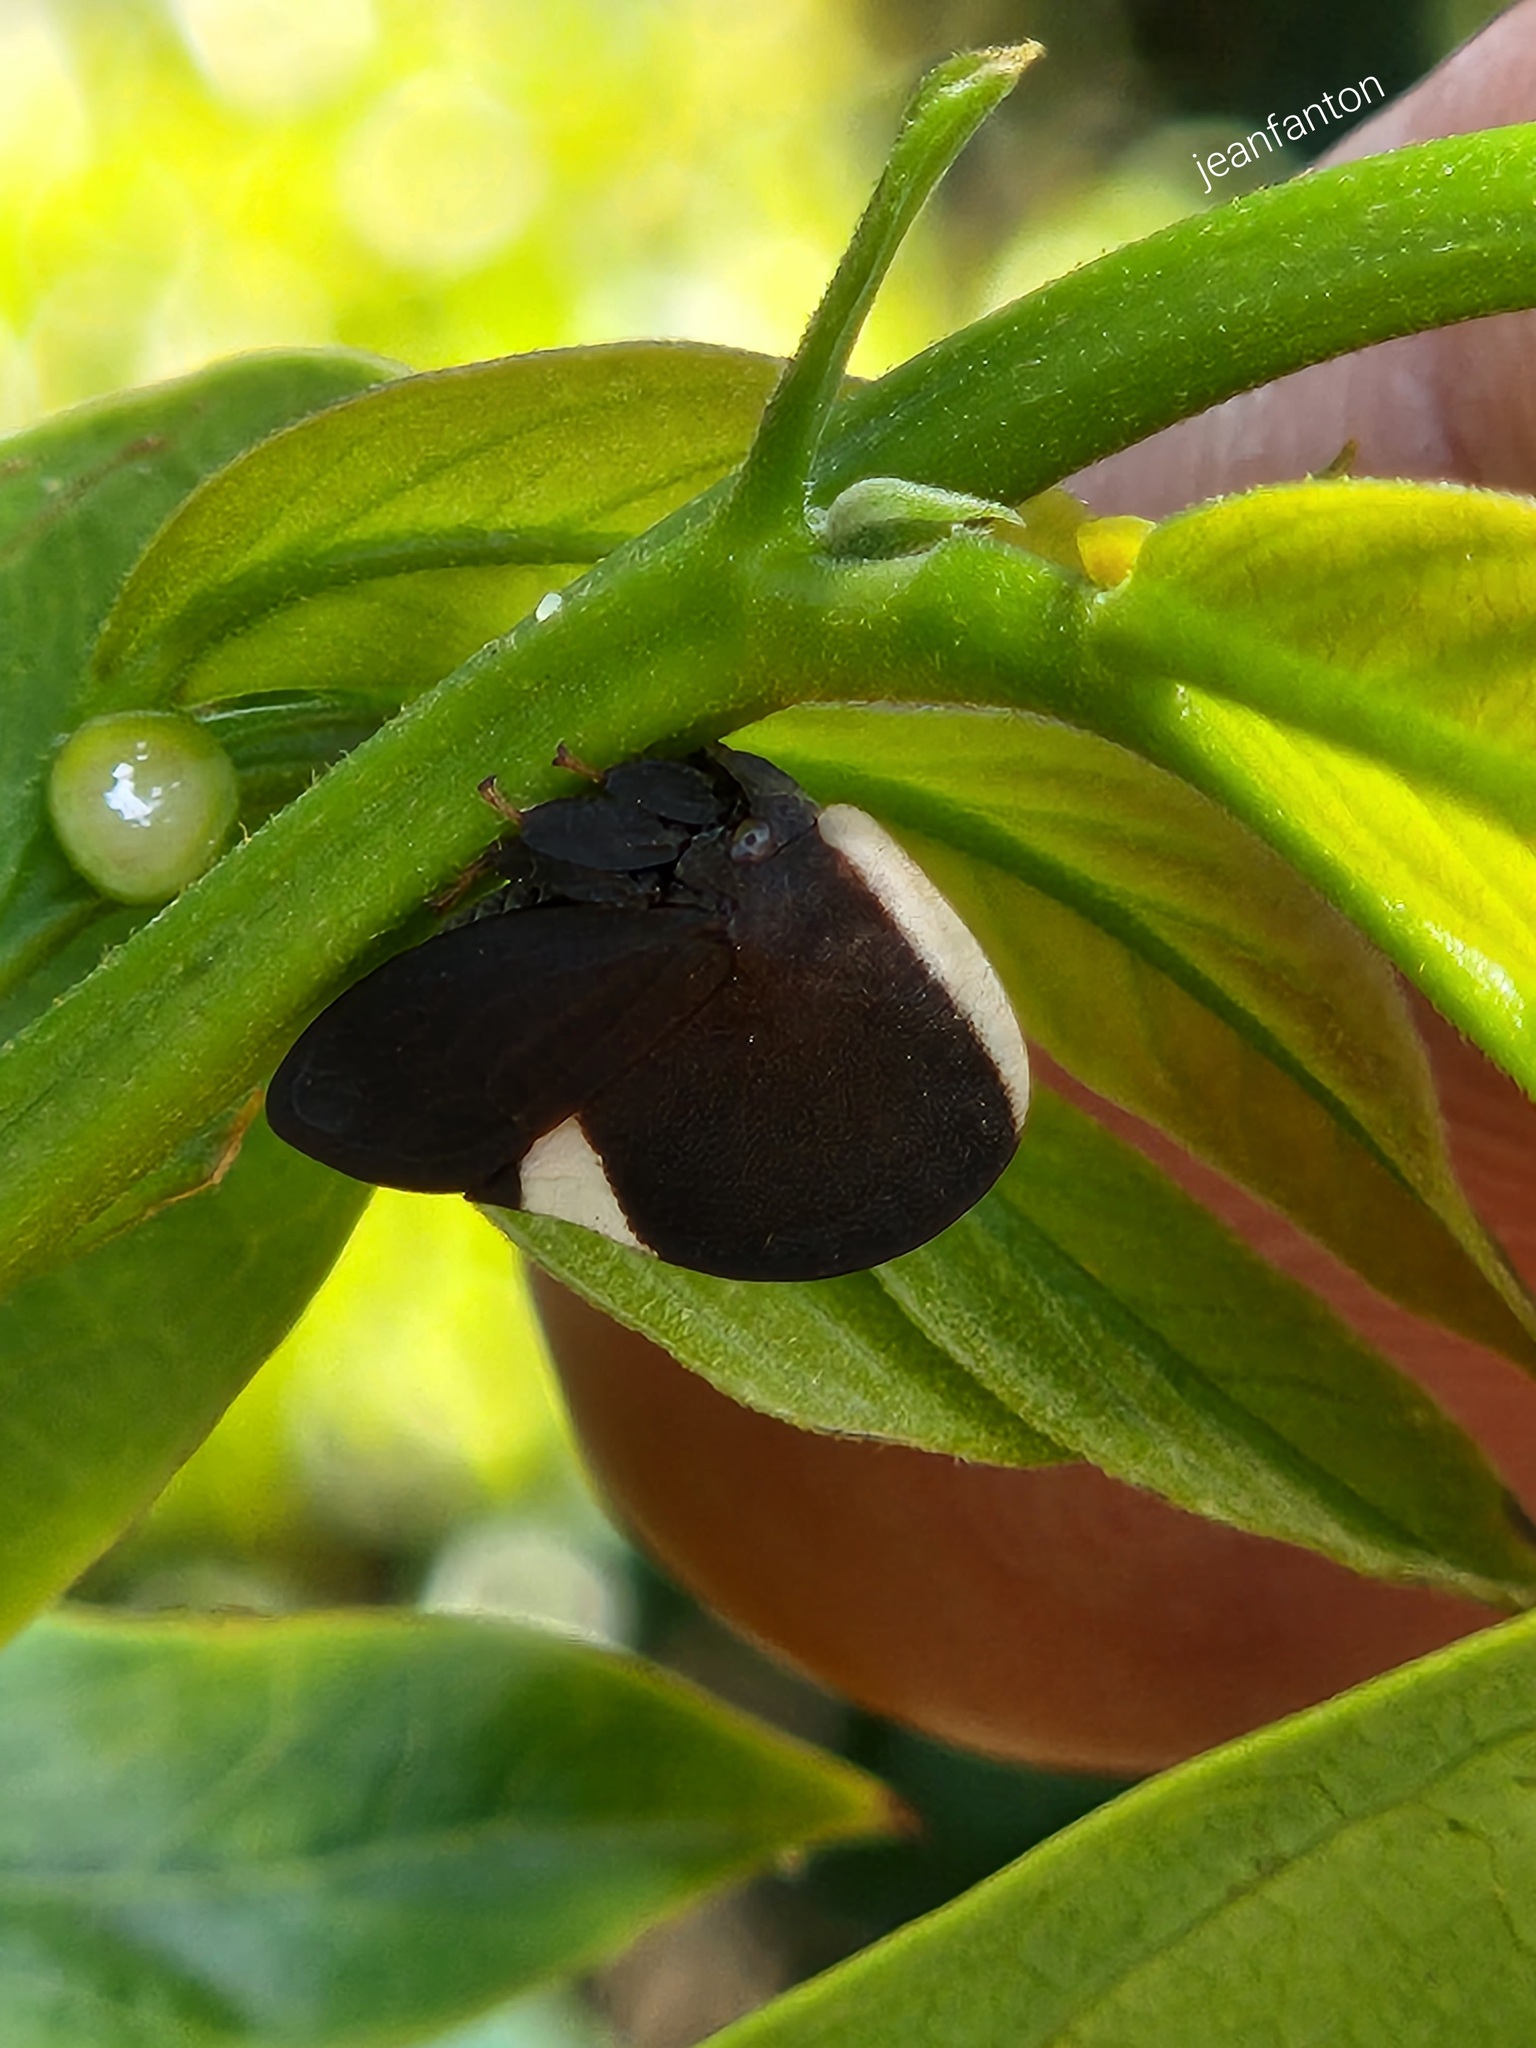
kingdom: Animalia
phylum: Arthropoda
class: Insecta
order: Hemiptera
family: Membracidae
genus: Membracis
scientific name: Membracis dorsata
